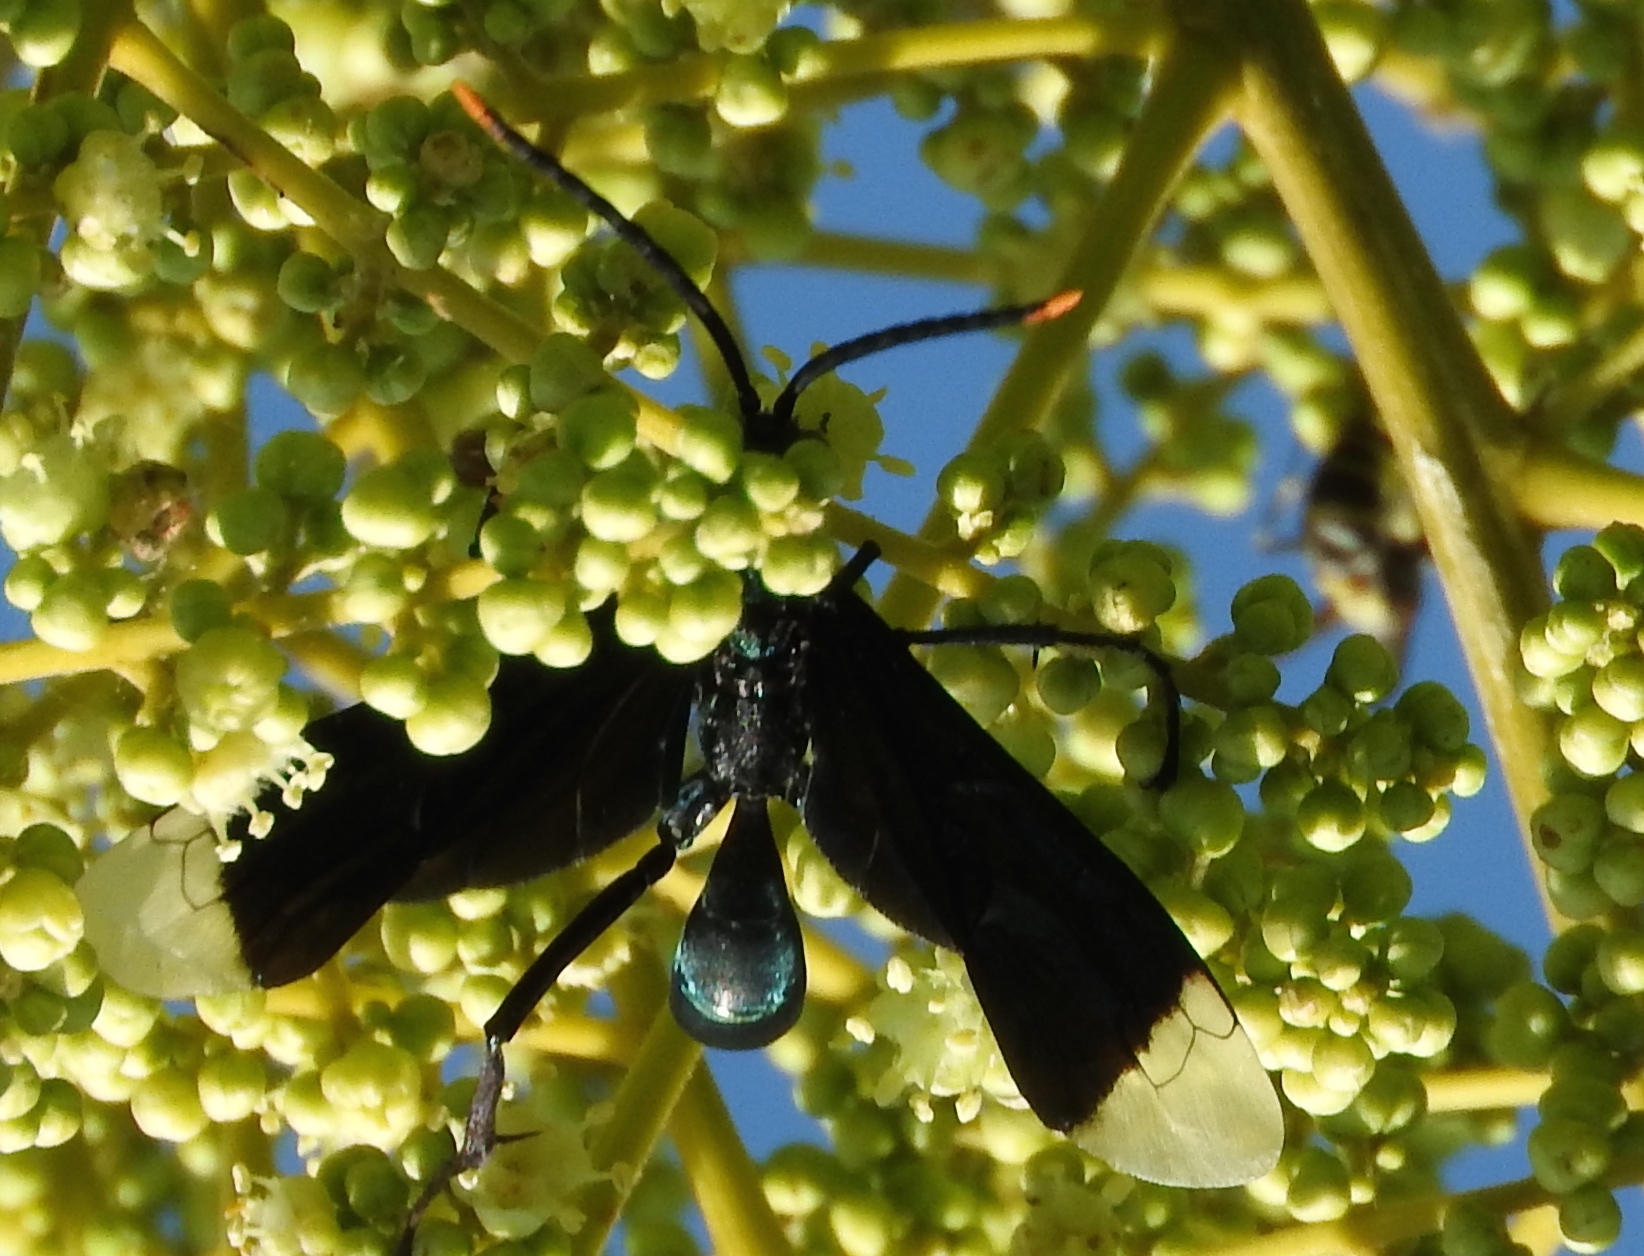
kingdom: Animalia
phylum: Arthropoda
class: Insecta
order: Hymenoptera
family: Pompilidae
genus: Pepsis
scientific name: Pepsis
